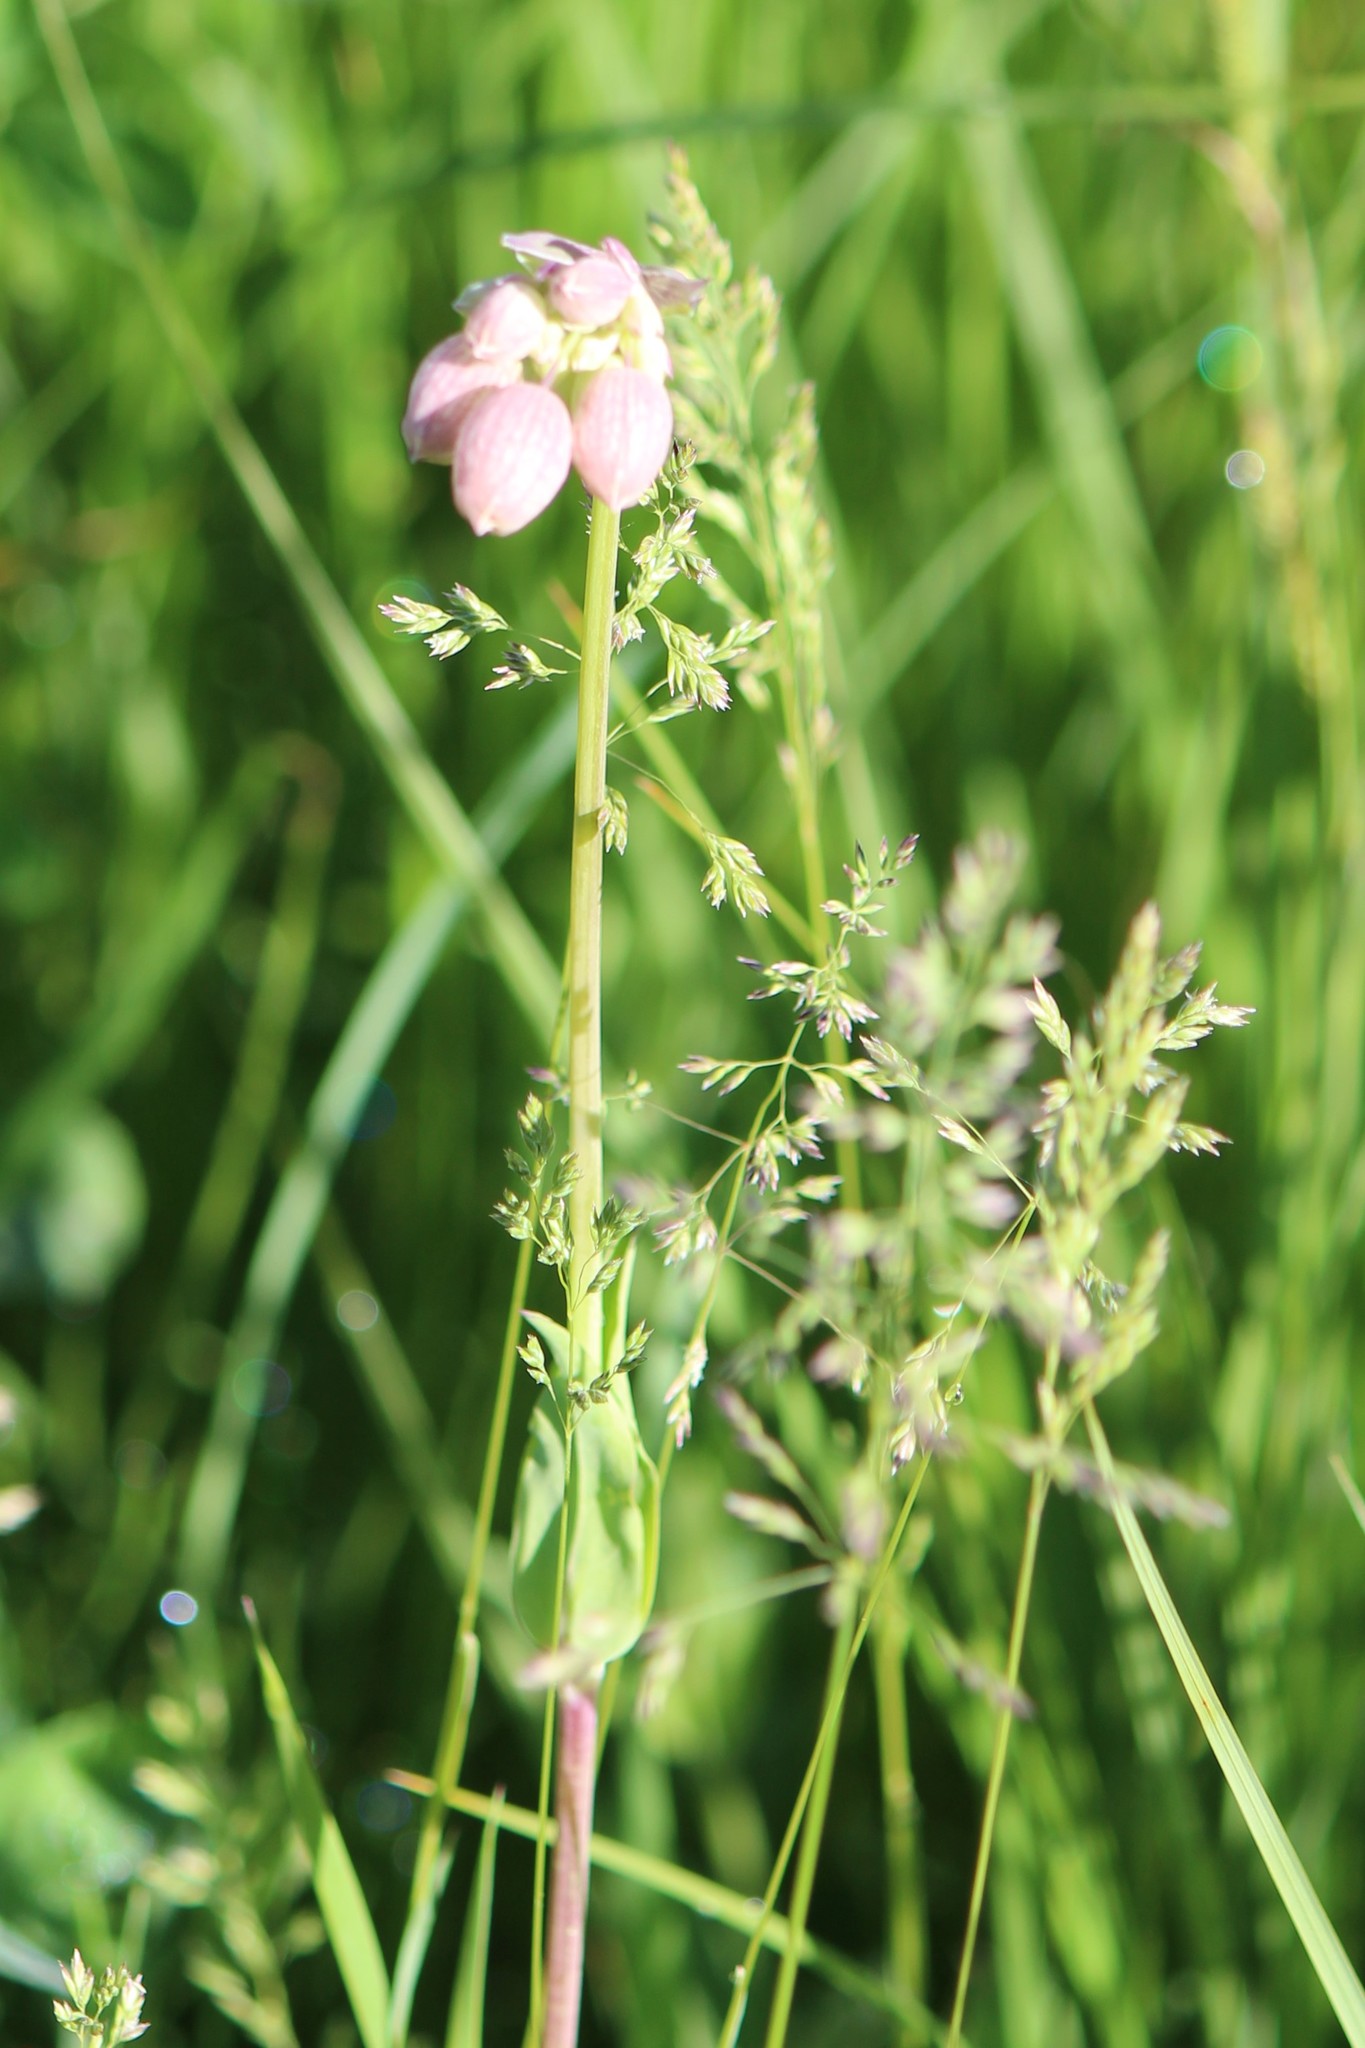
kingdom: Plantae
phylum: Tracheophyta
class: Magnoliopsida
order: Caryophyllales
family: Caryophyllaceae
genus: Silene
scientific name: Silene vulgaris
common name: Bladder campion
